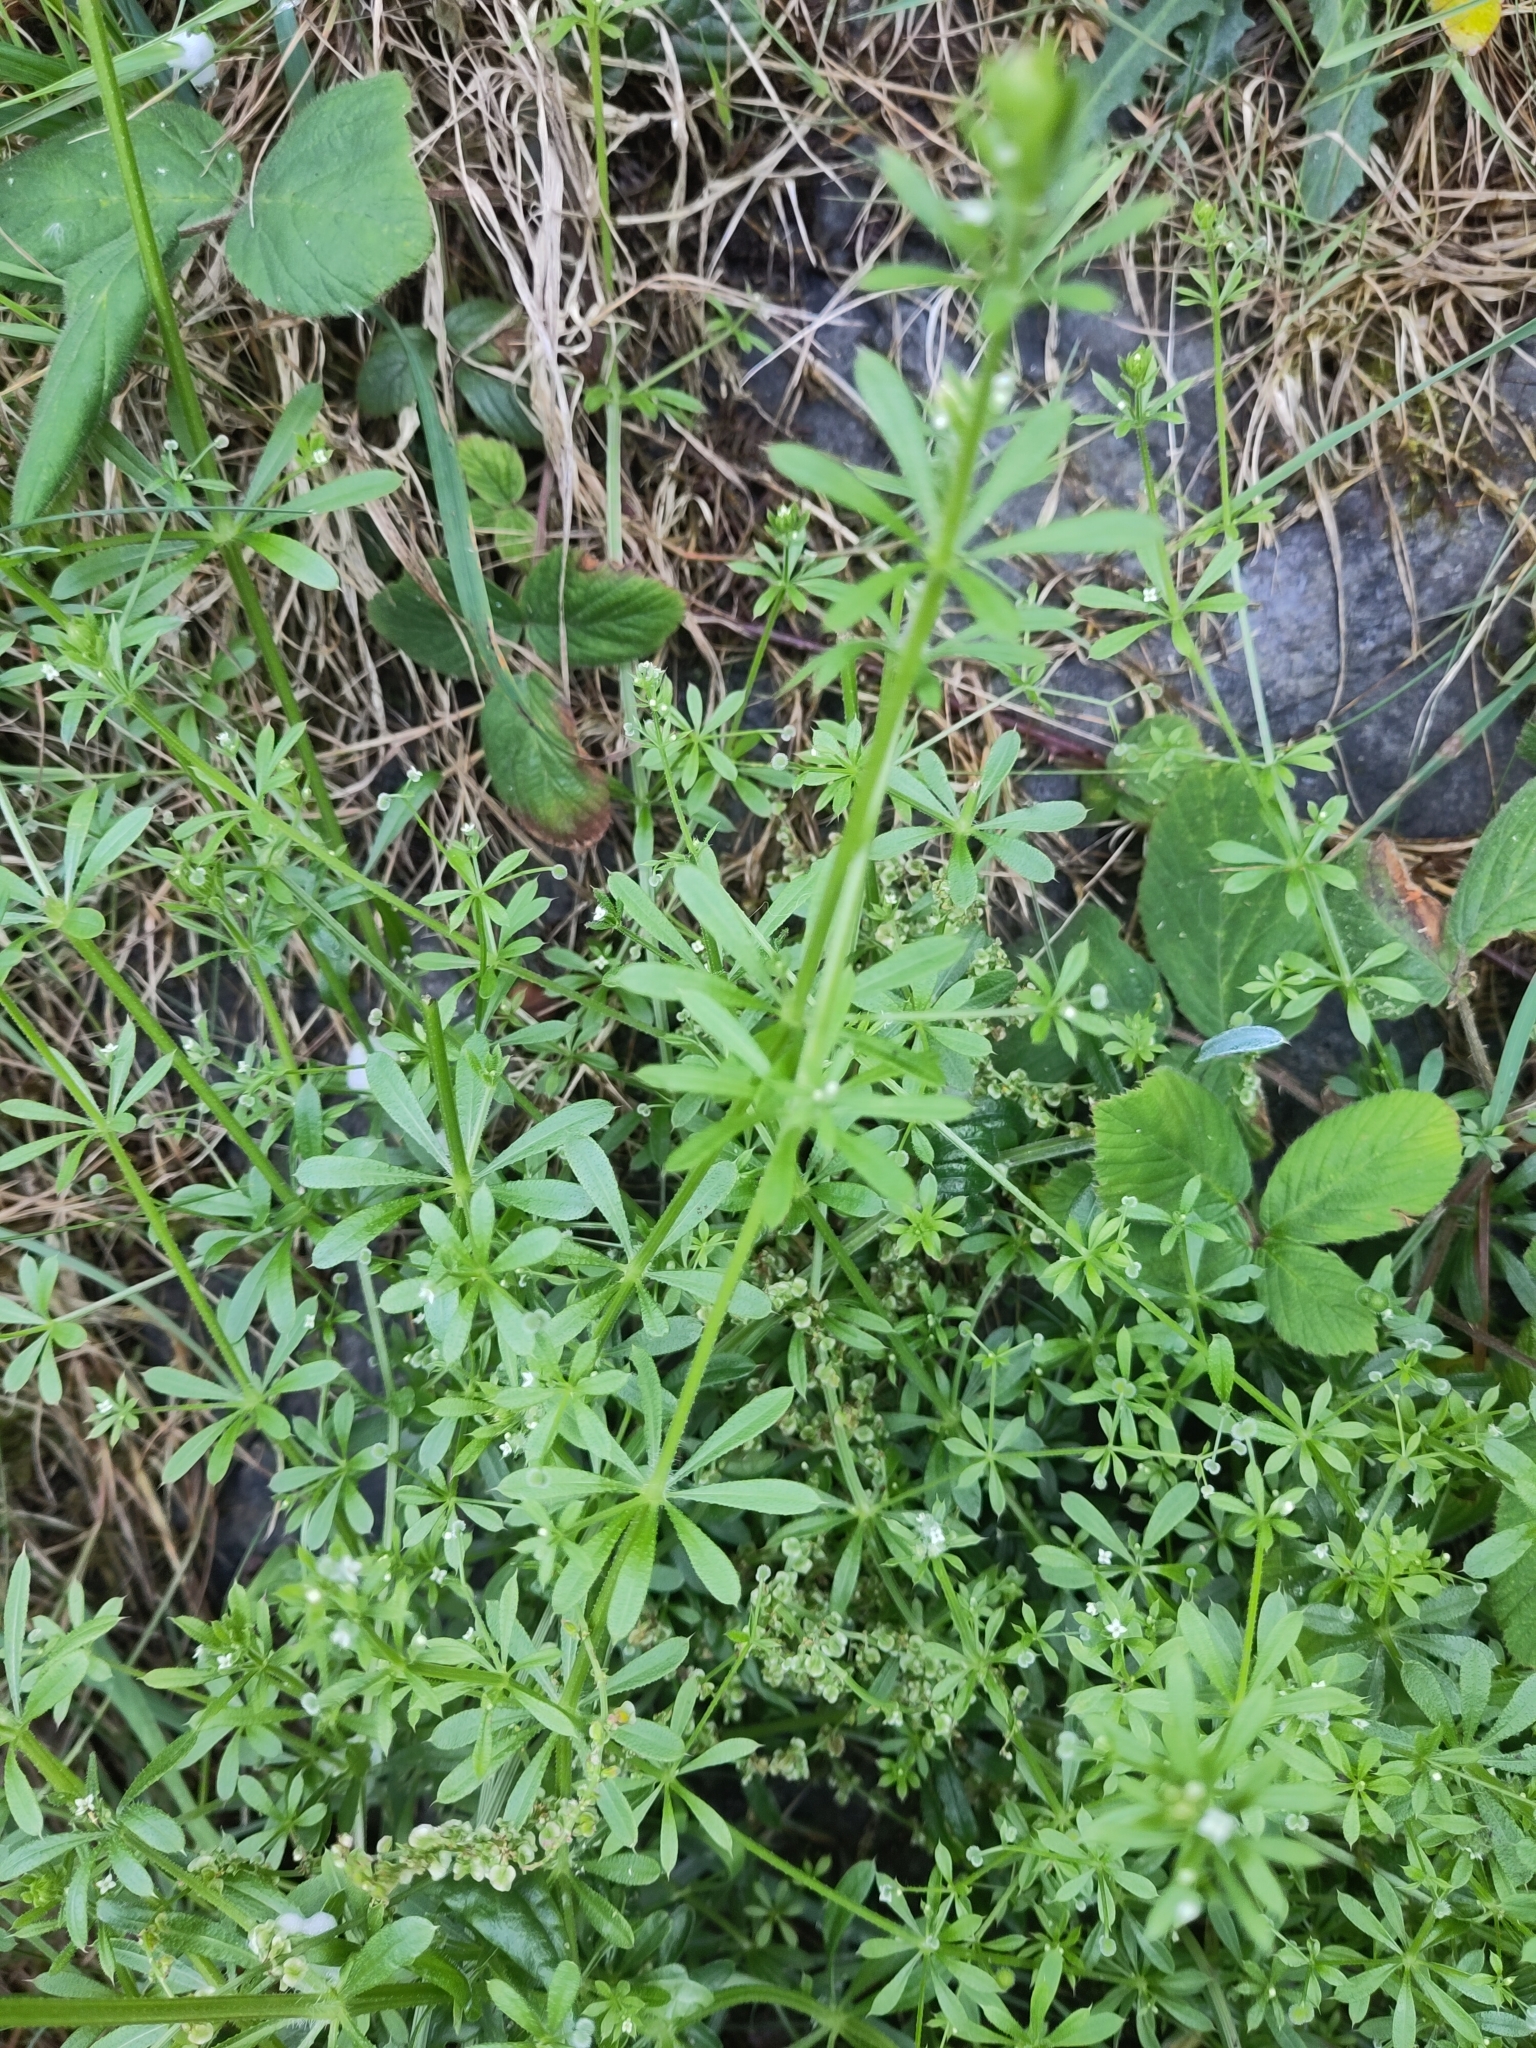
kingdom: Plantae
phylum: Tracheophyta
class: Magnoliopsida
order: Gentianales
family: Rubiaceae
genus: Galium
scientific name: Galium aparine
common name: Cleavers
